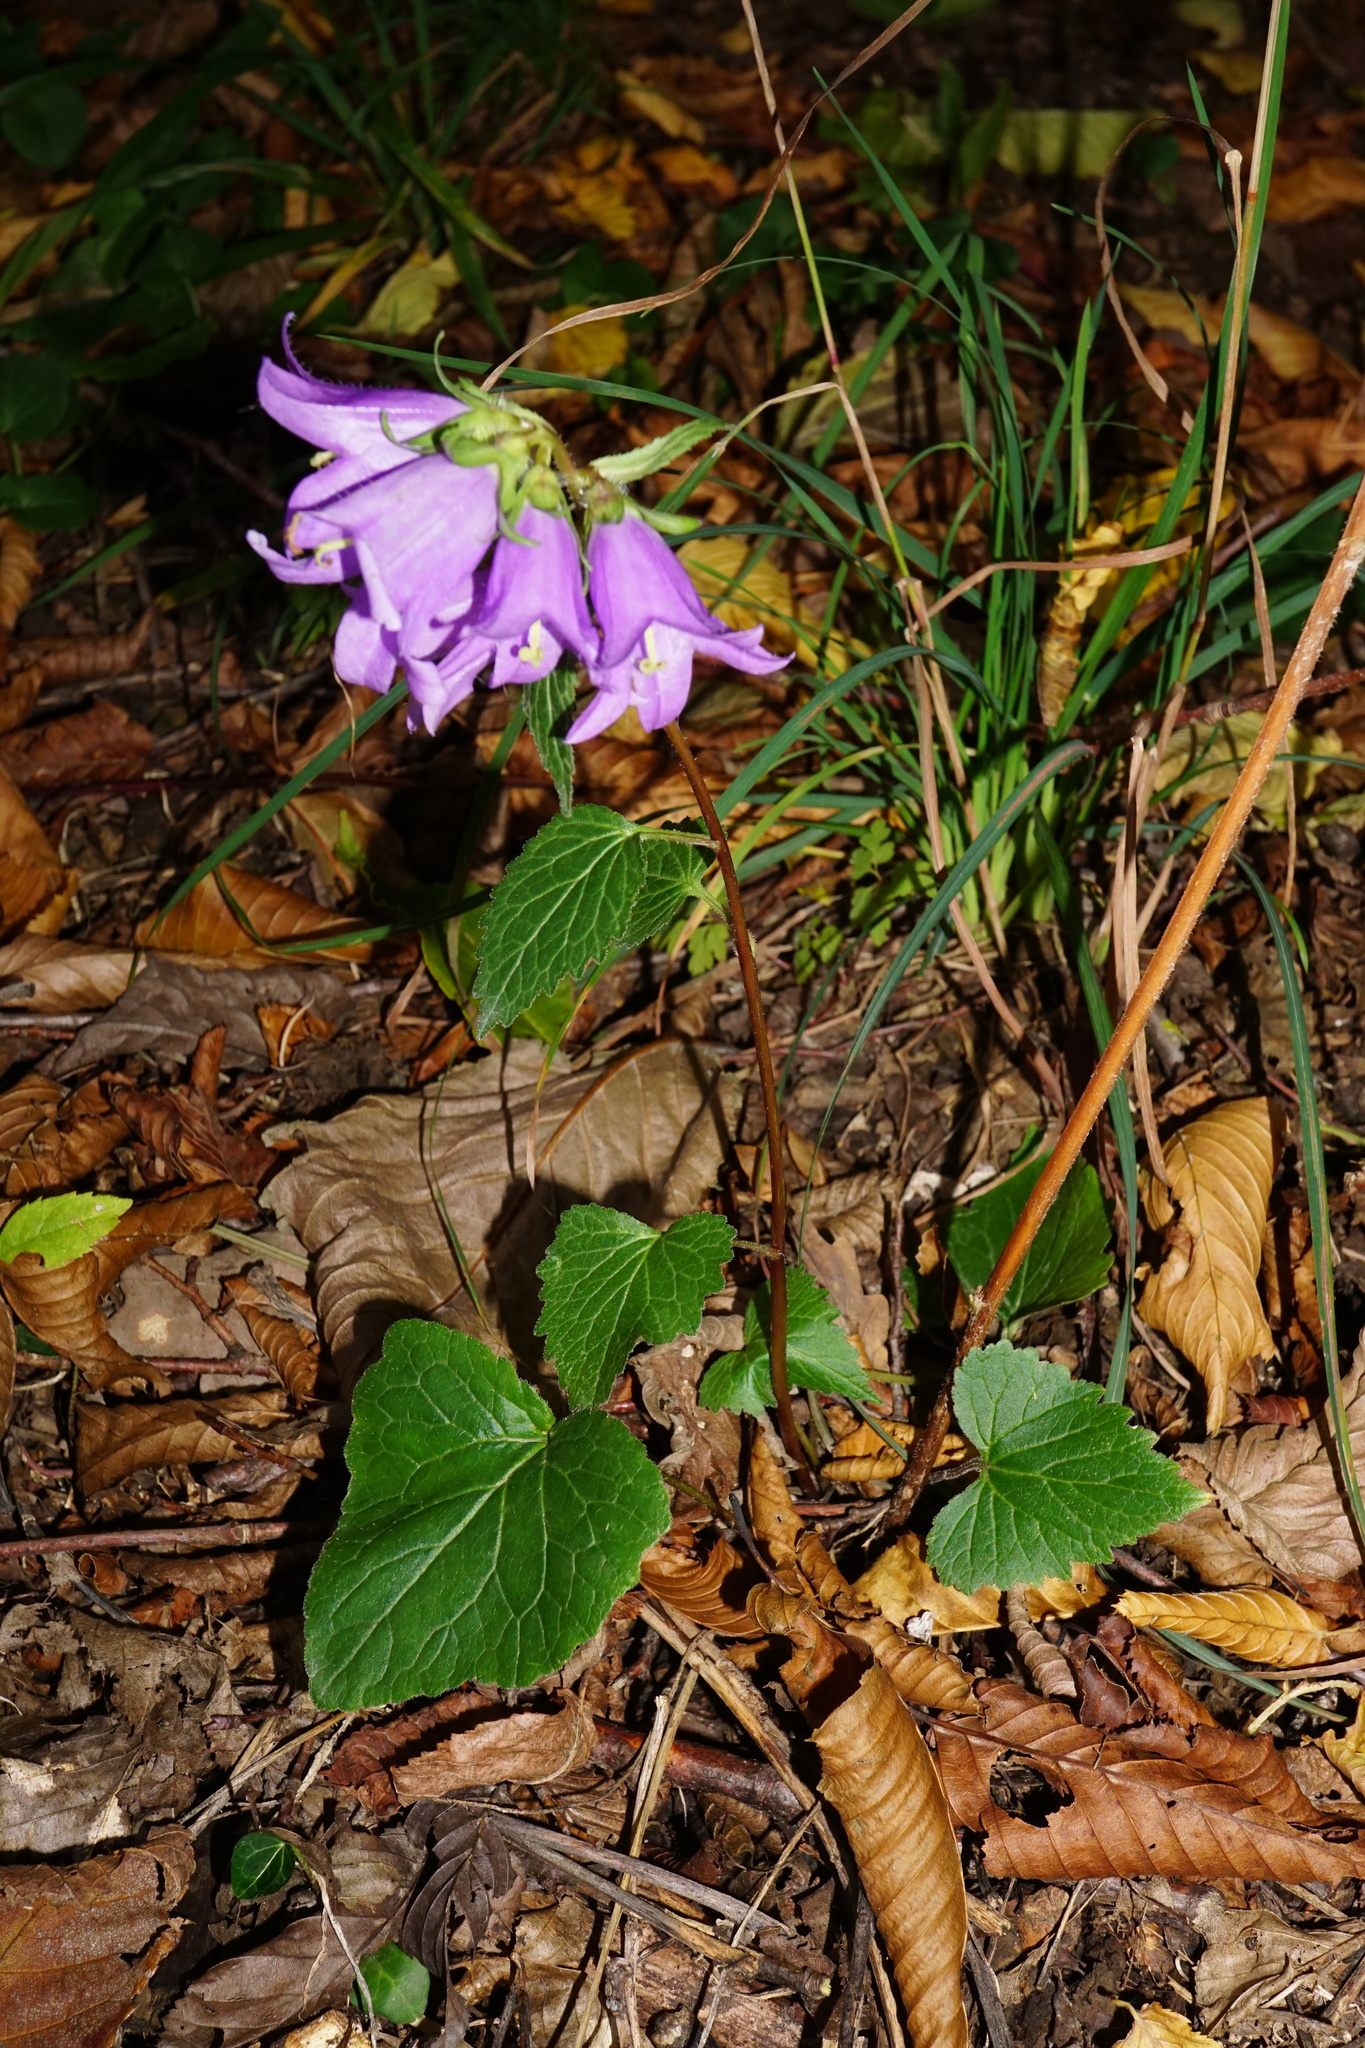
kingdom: Plantae
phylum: Tracheophyta
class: Magnoliopsida
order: Asterales
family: Campanulaceae
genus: Campanula
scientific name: Campanula trachelium
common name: Nettle-leaved bellflower
